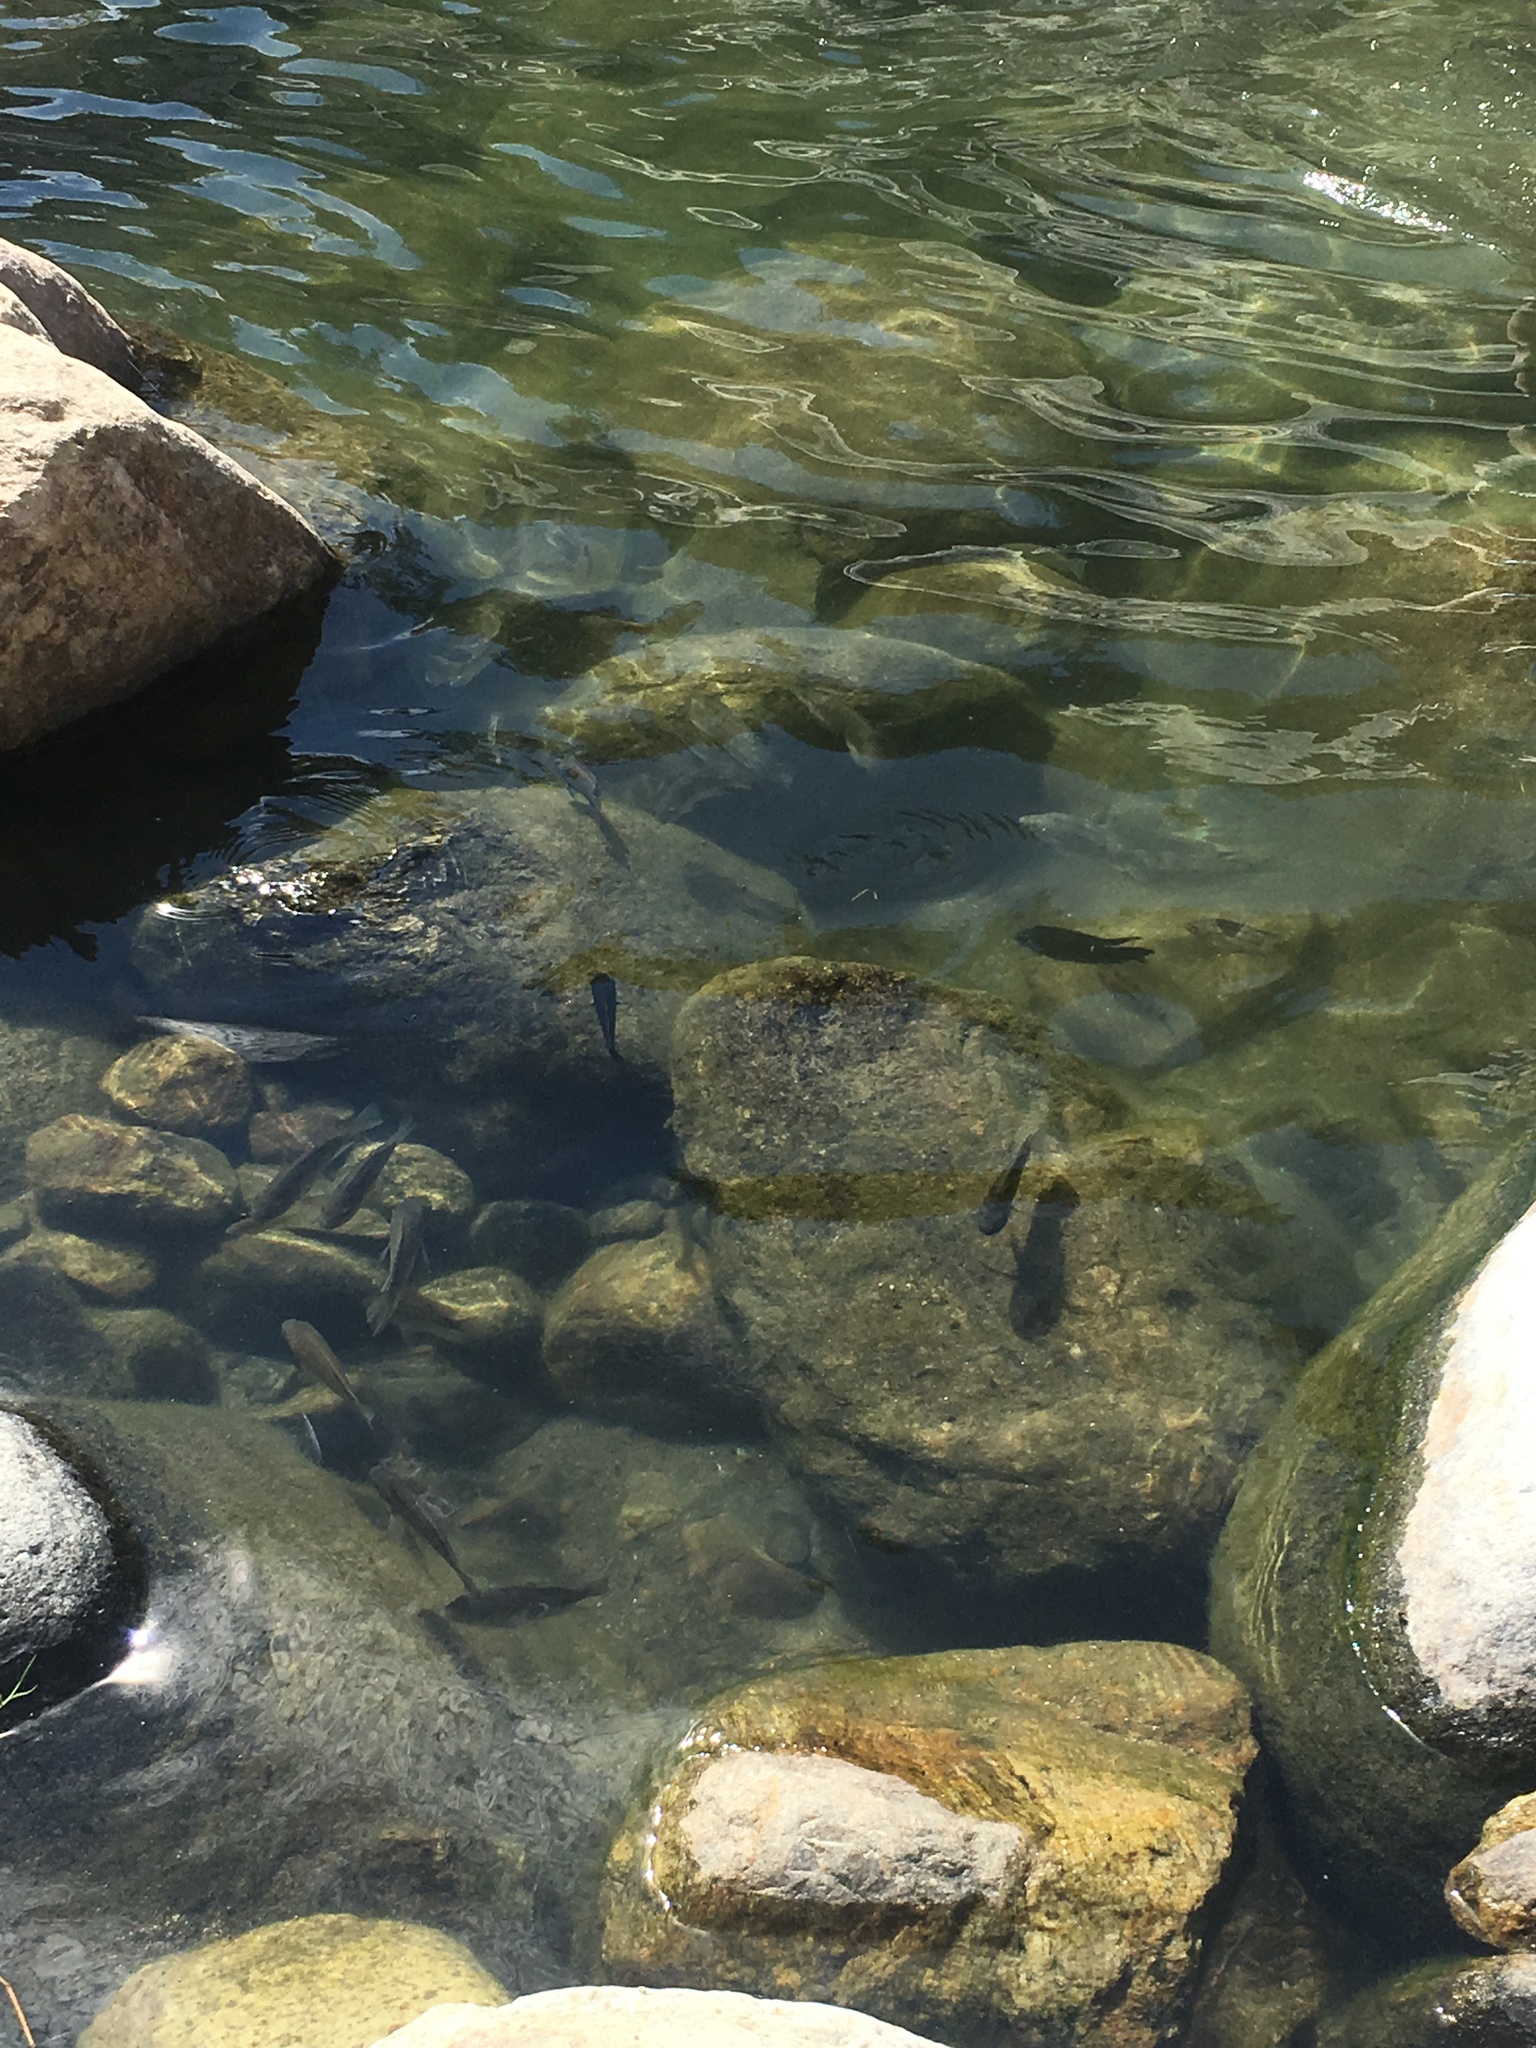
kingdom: Animalia
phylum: Chordata
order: Perciformes
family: Cichlidae
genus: Oreochromis
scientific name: Oreochromis mossambicus
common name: Mozambique tilapia
